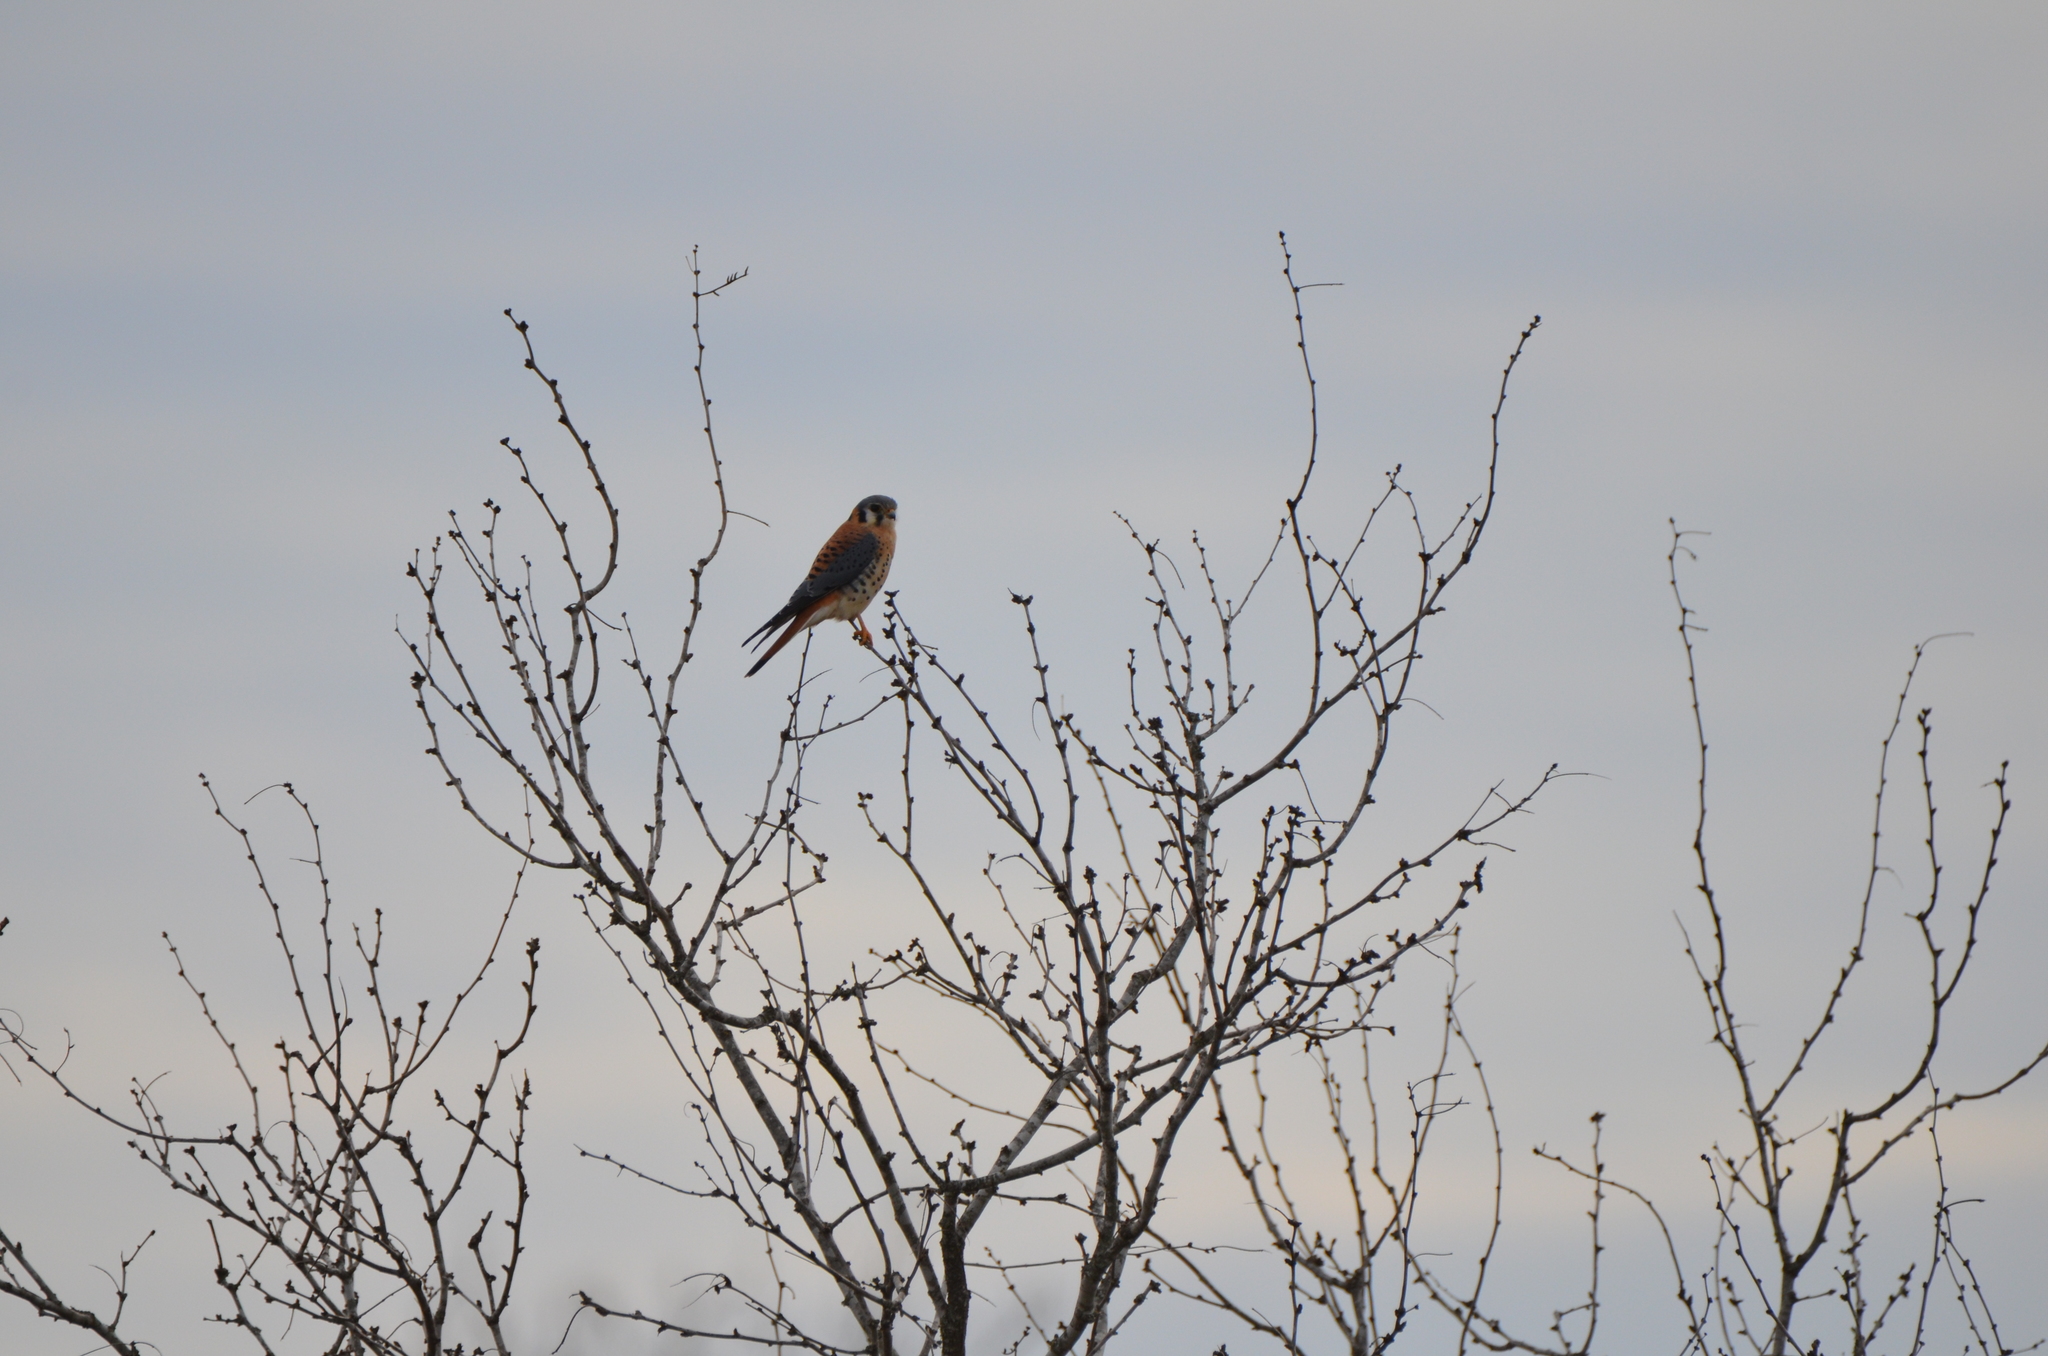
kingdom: Animalia
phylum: Chordata
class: Aves
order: Falconiformes
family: Falconidae
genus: Falco
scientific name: Falco sparverius
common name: American kestrel
